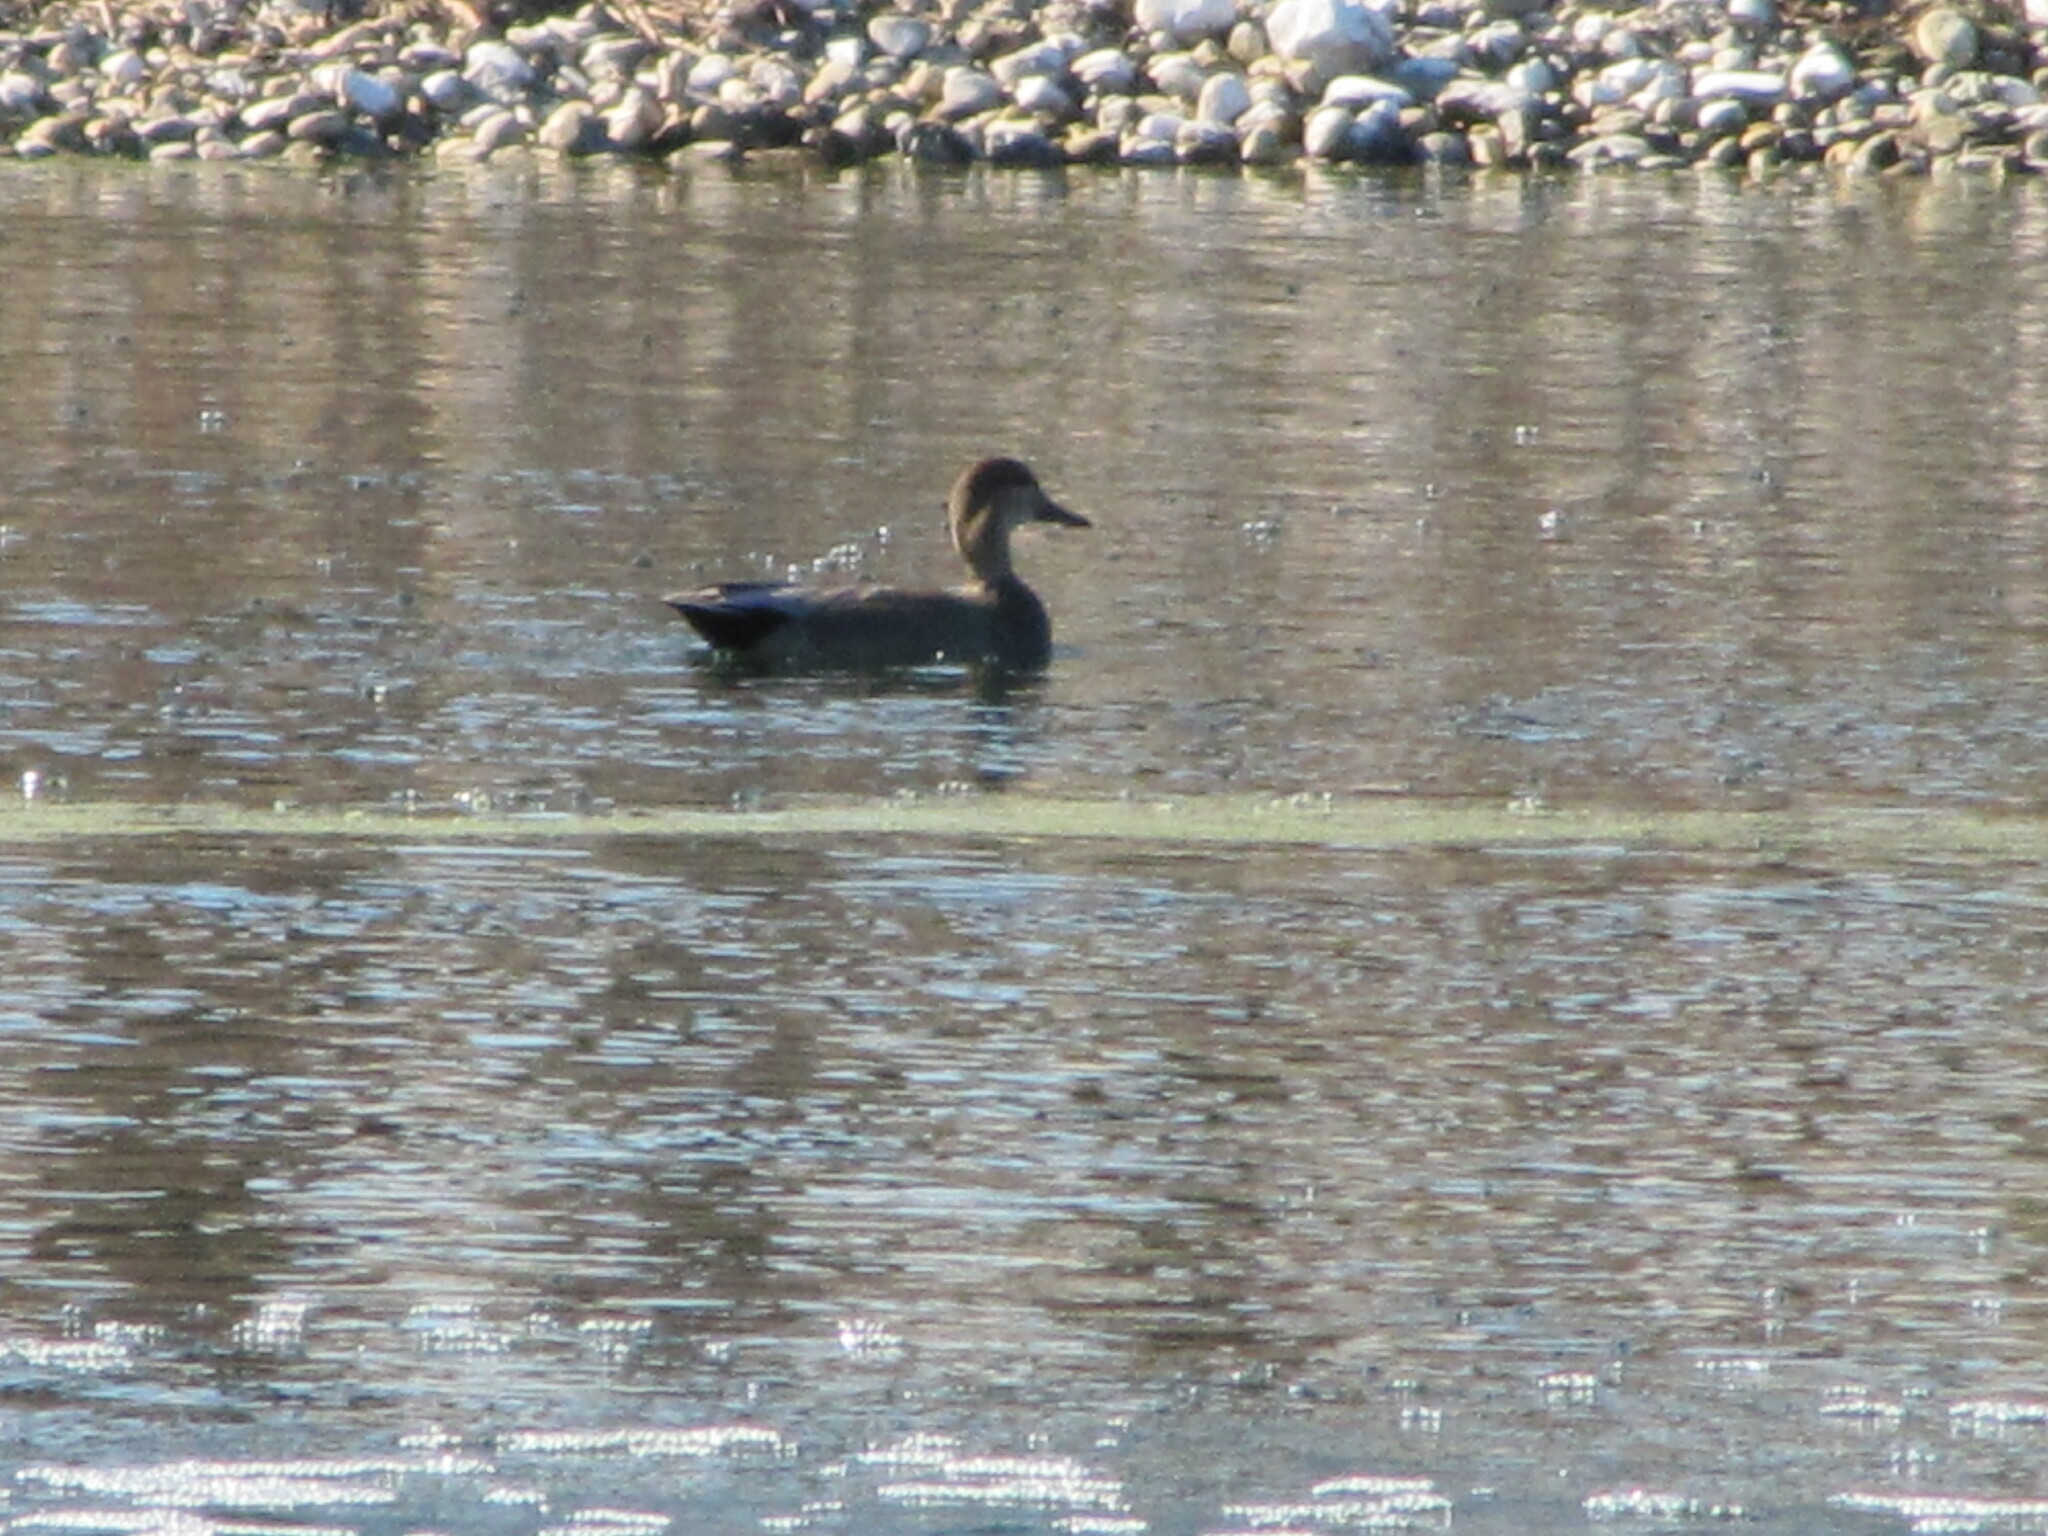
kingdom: Animalia
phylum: Chordata
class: Aves
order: Anseriformes
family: Anatidae
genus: Mareca
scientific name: Mareca strepera
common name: Gadwall
